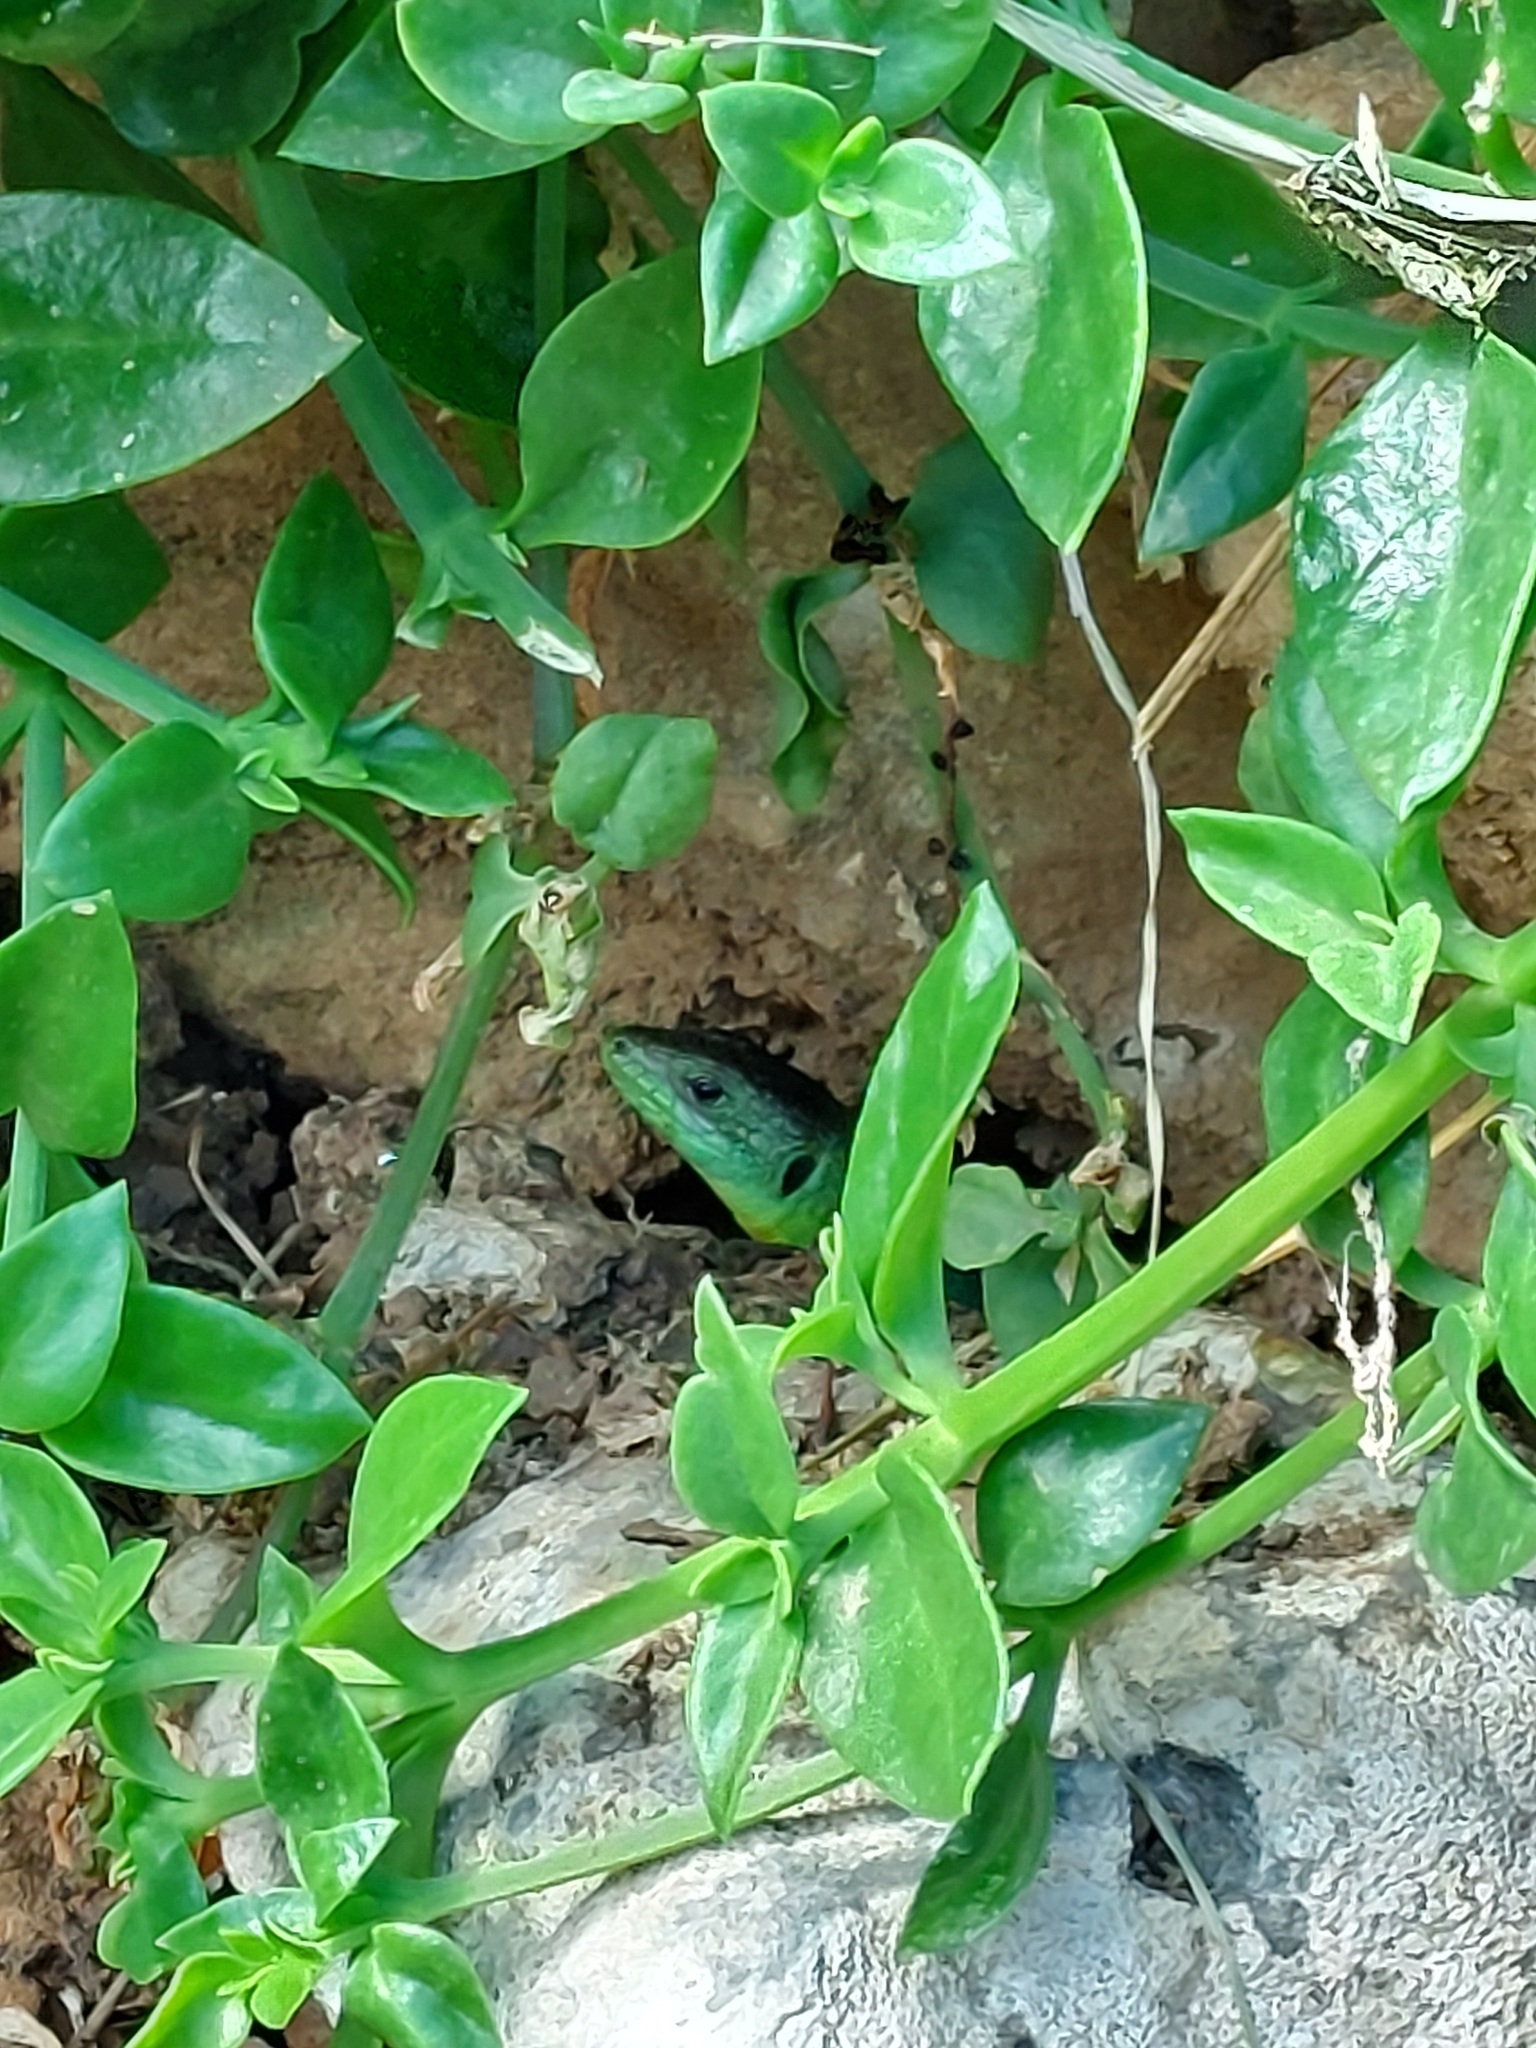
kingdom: Animalia
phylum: Chordata
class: Squamata
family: Lacertidae
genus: Lacerta
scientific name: Lacerta trilineata
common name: Balkan green lizard
